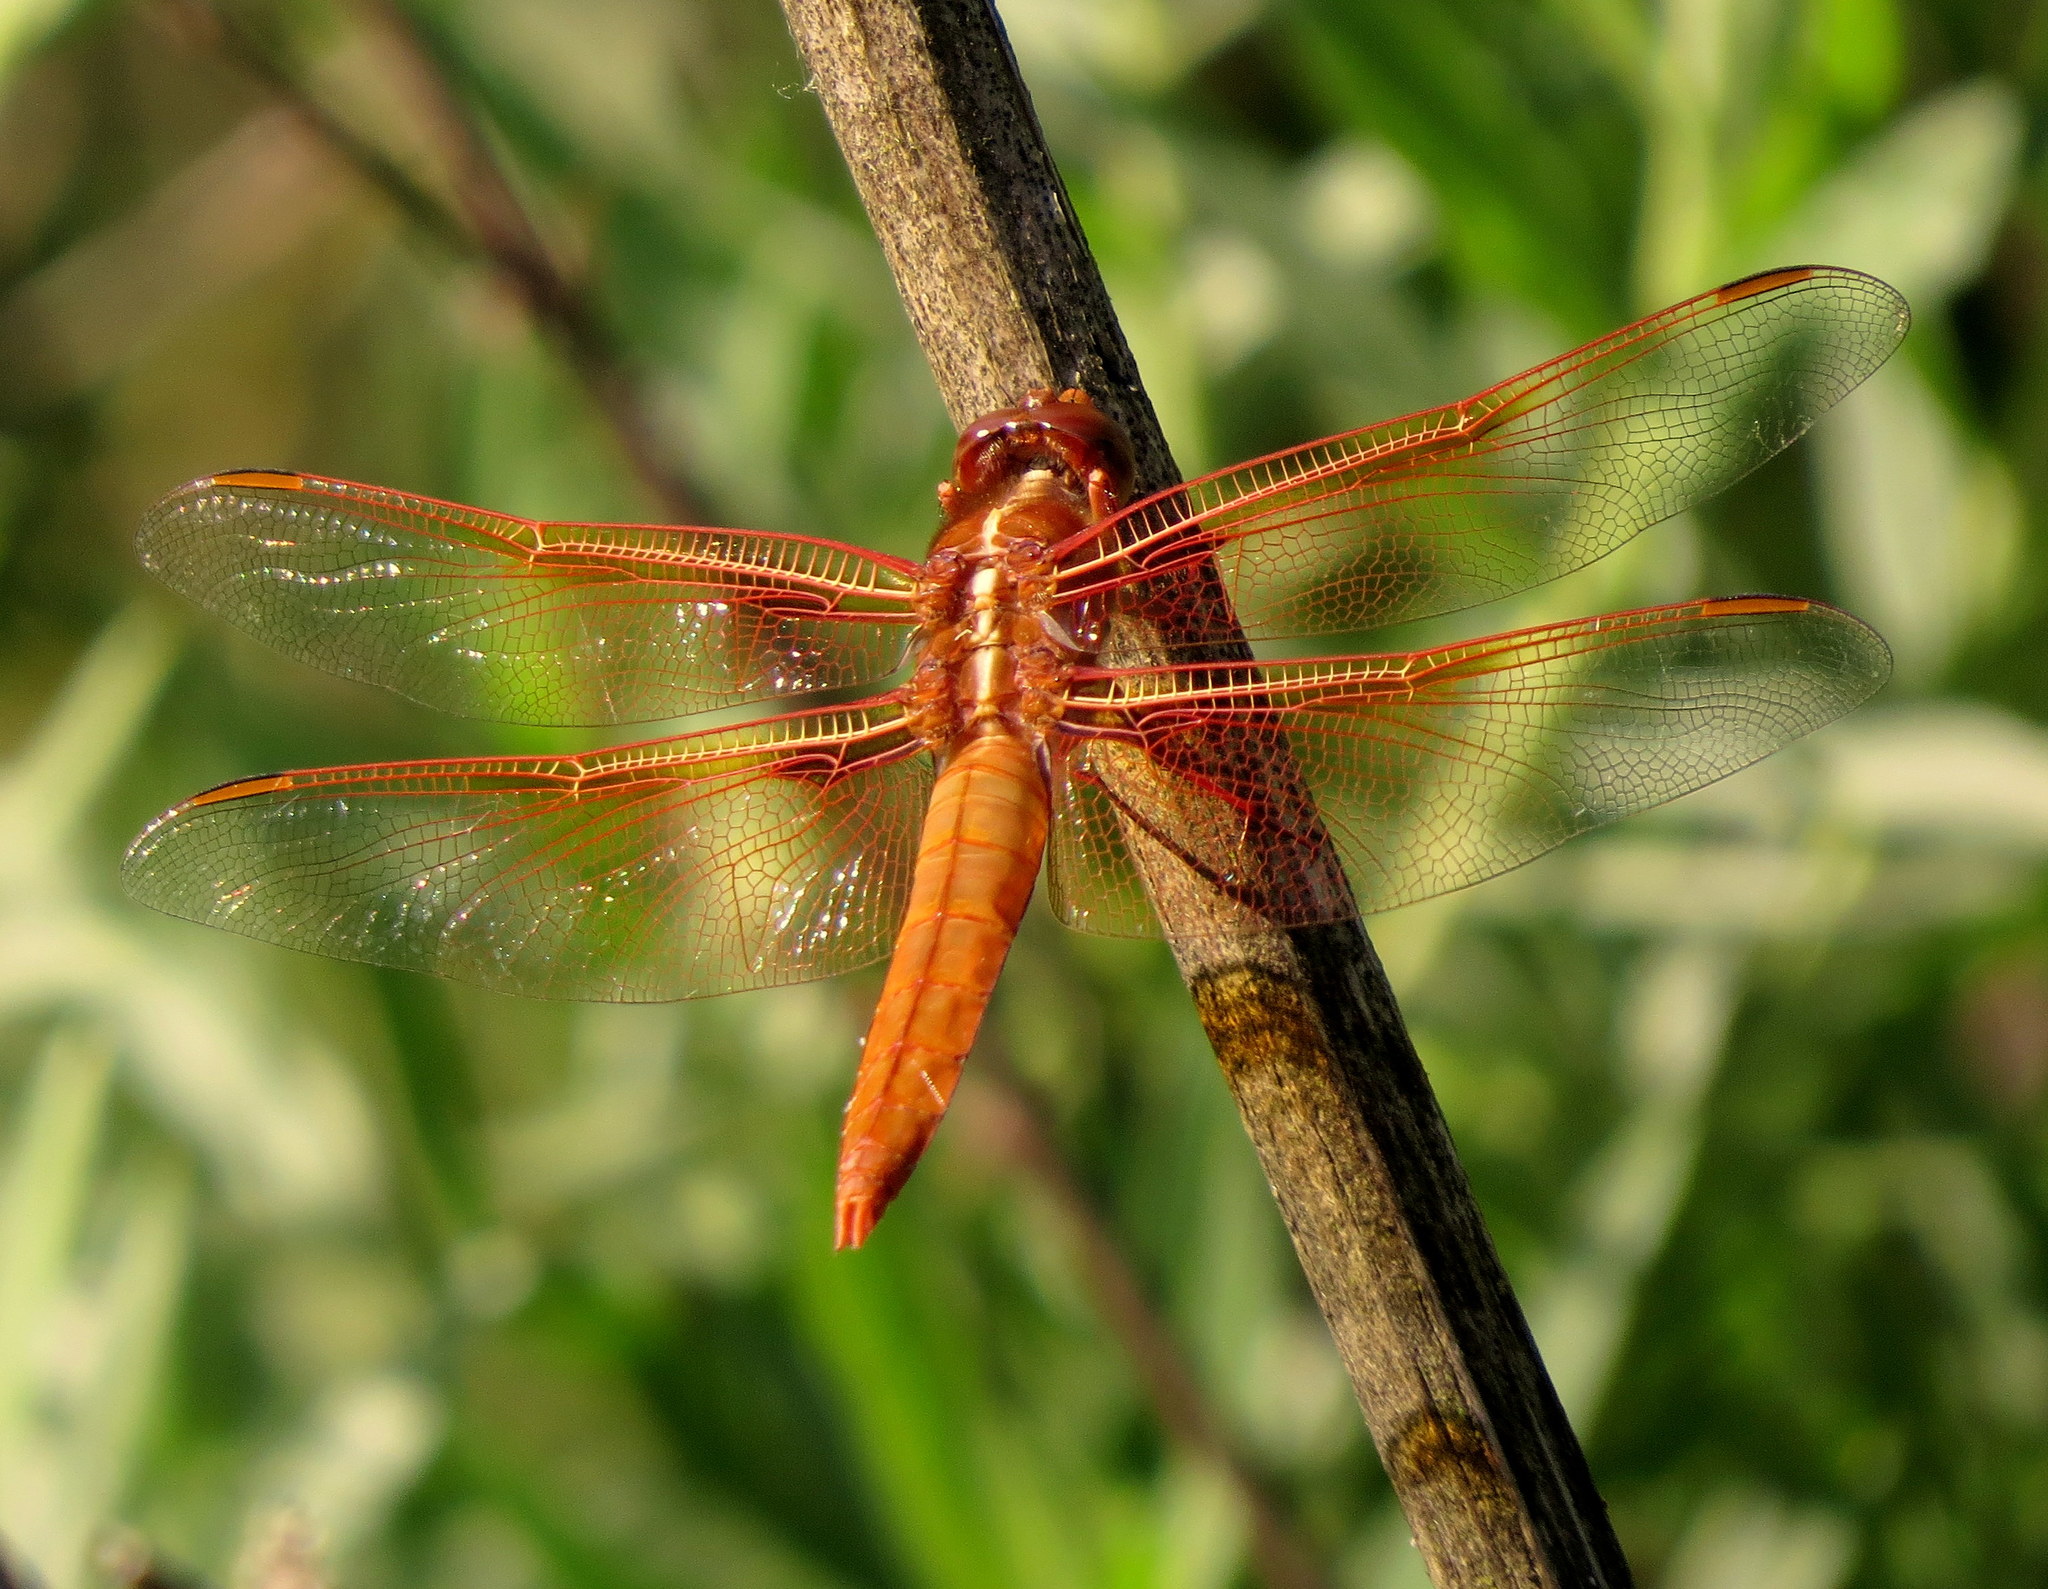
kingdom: Animalia
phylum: Arthropoda
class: Insecta
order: Odonata
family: Libellulidae
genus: Libellula
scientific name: Libellula saturata
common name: Flame skimmer
